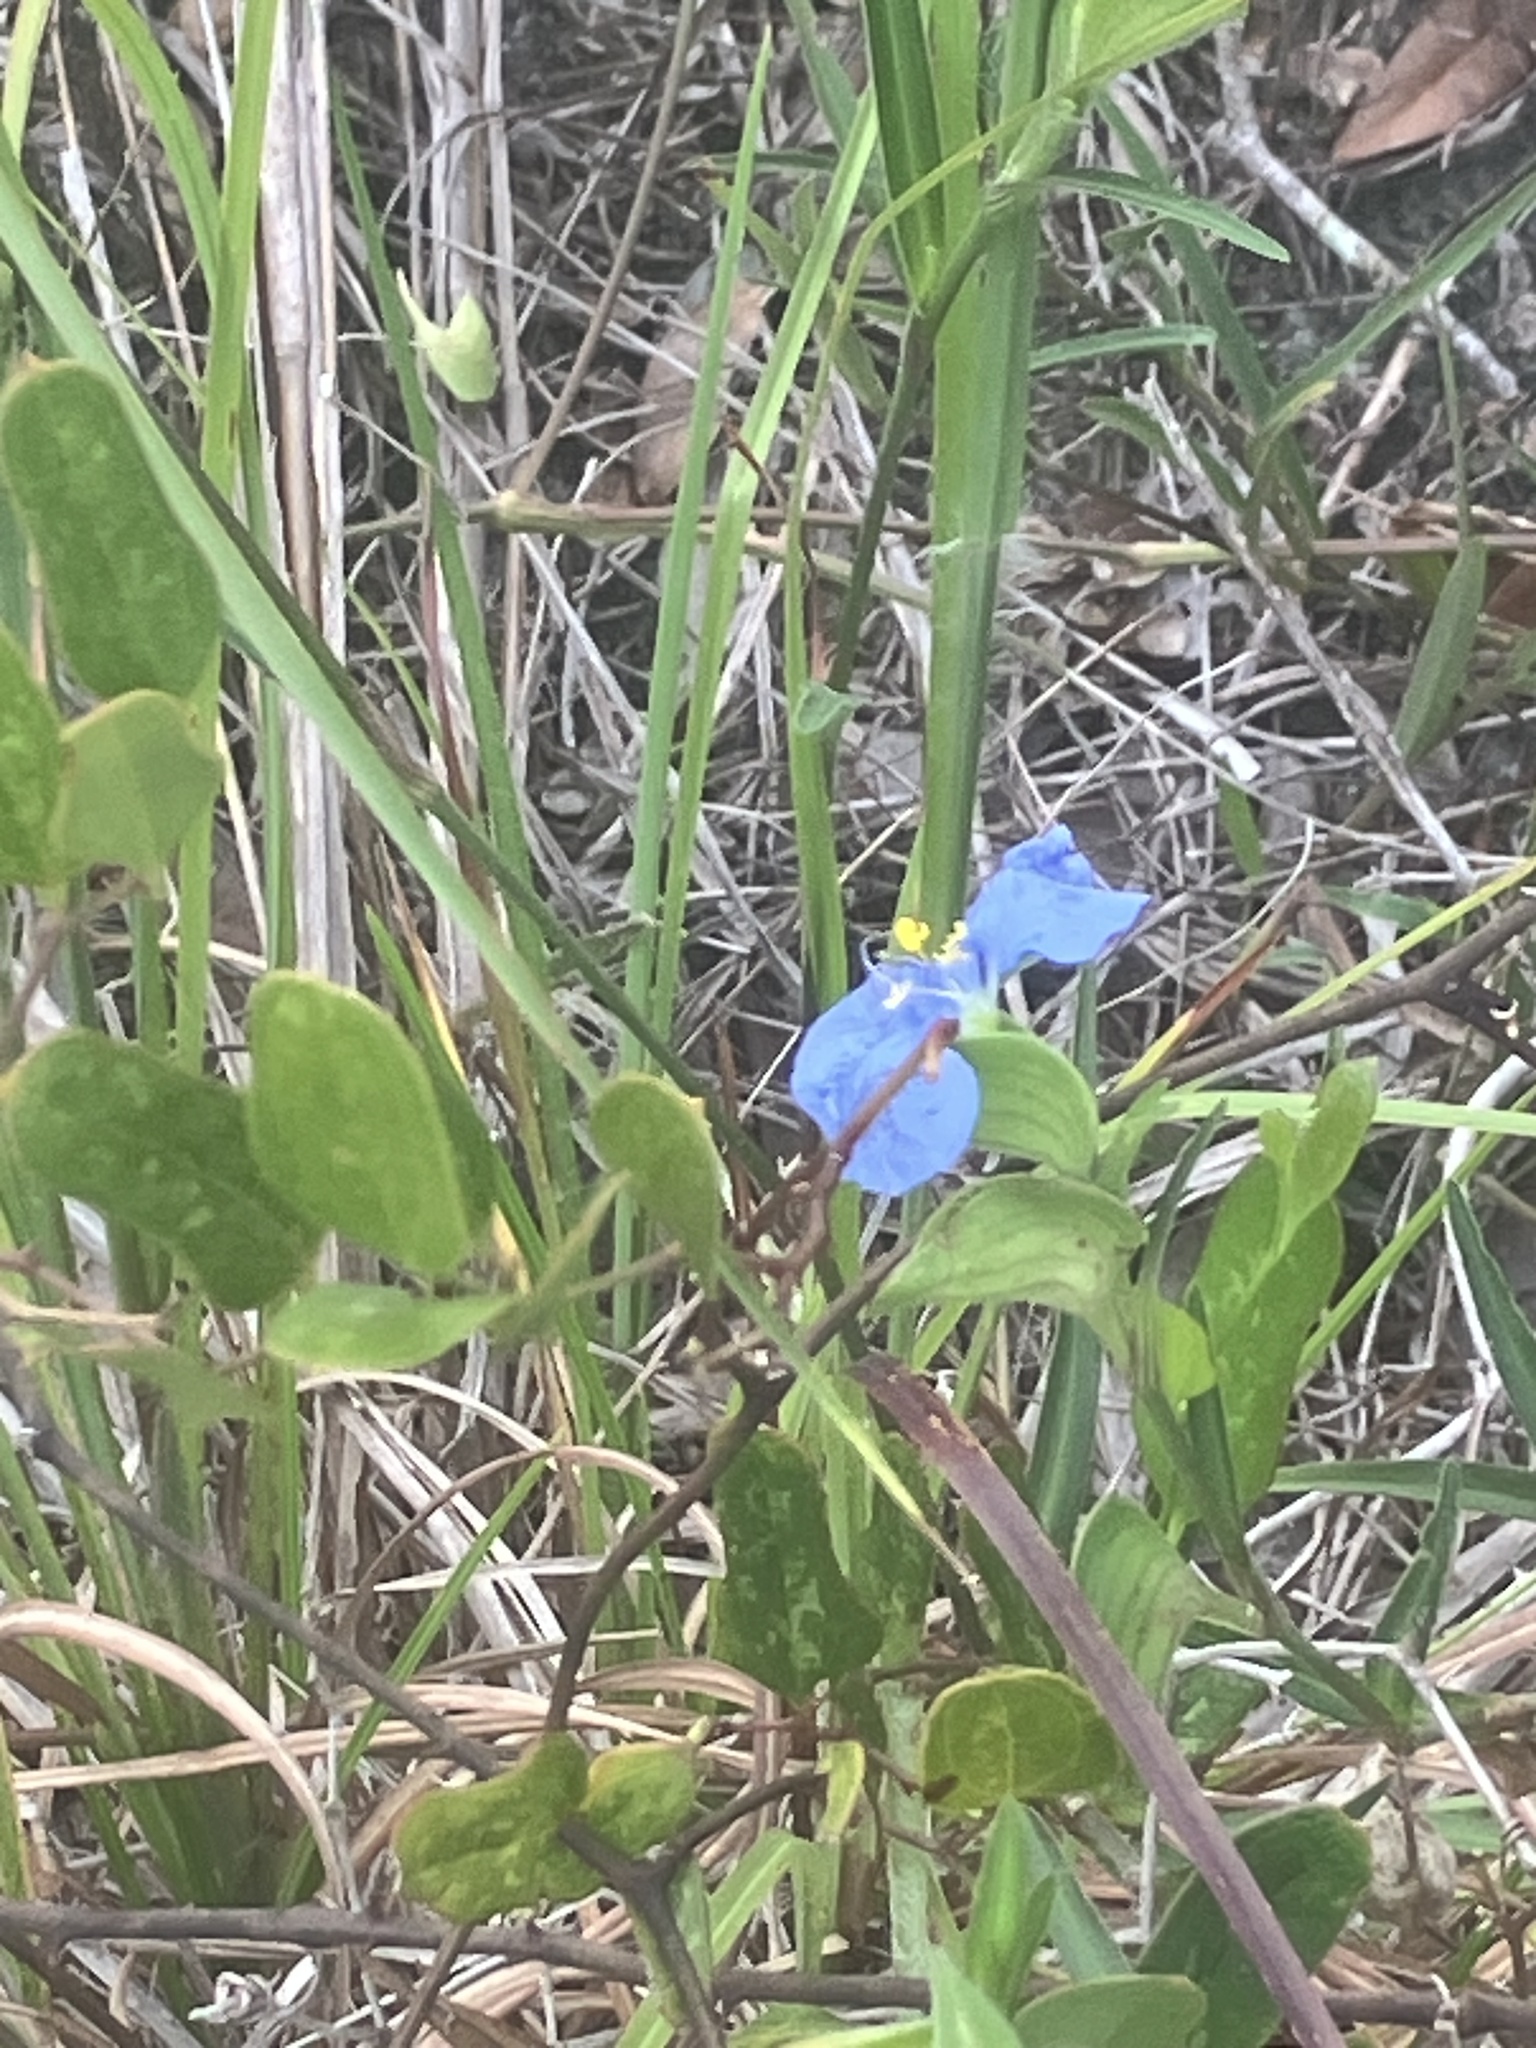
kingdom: Plantae
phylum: Tracheophyta
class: Liliopsida
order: Commelinales
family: Commelinaceae
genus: Commelina
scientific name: Commelina erecta
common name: Blousel blommetjie
